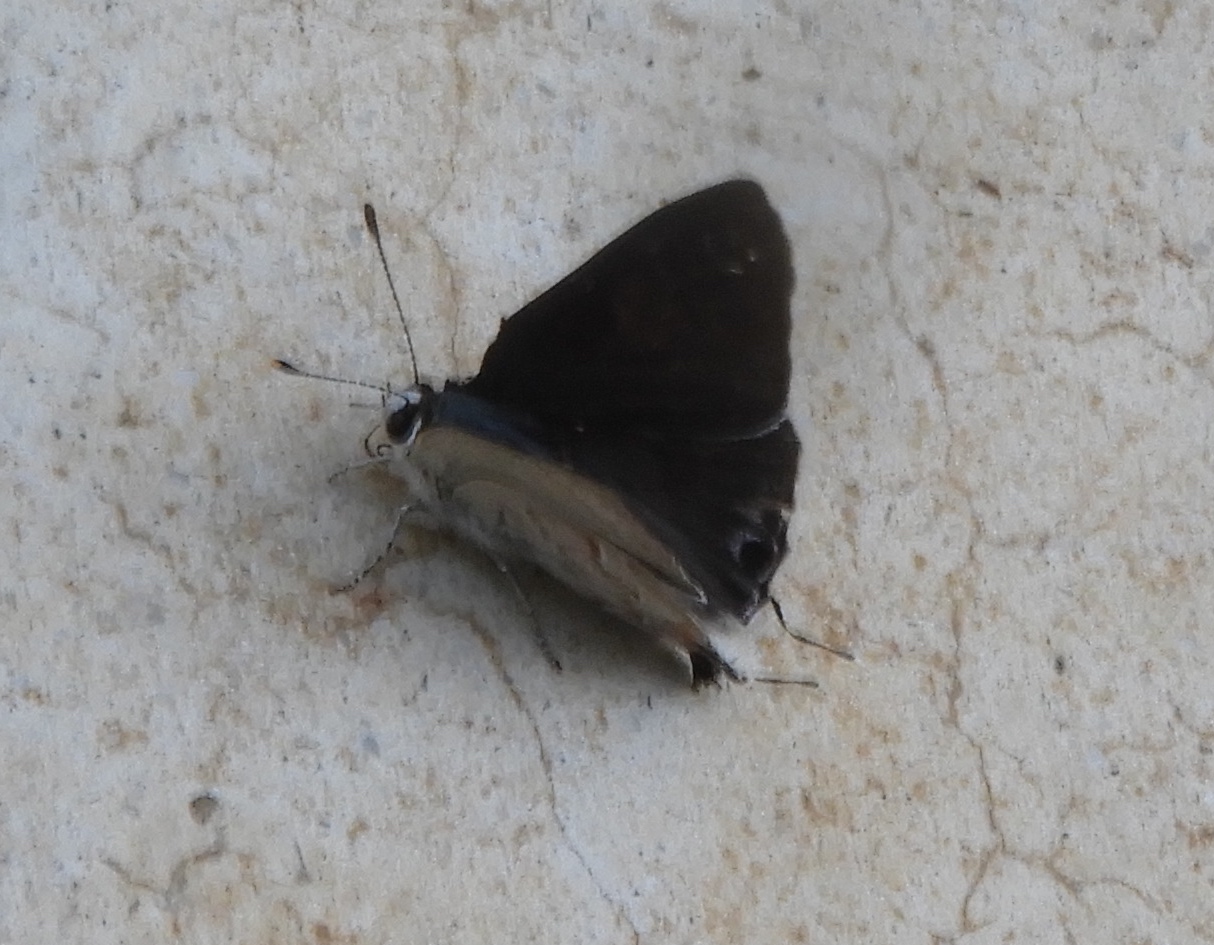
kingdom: Animalia
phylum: Arthropoda
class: Insecta
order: Lepidoptera
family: Lycaenidae
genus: Strymon
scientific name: Strymon alea
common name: Lacey's scrub-hairstreak
